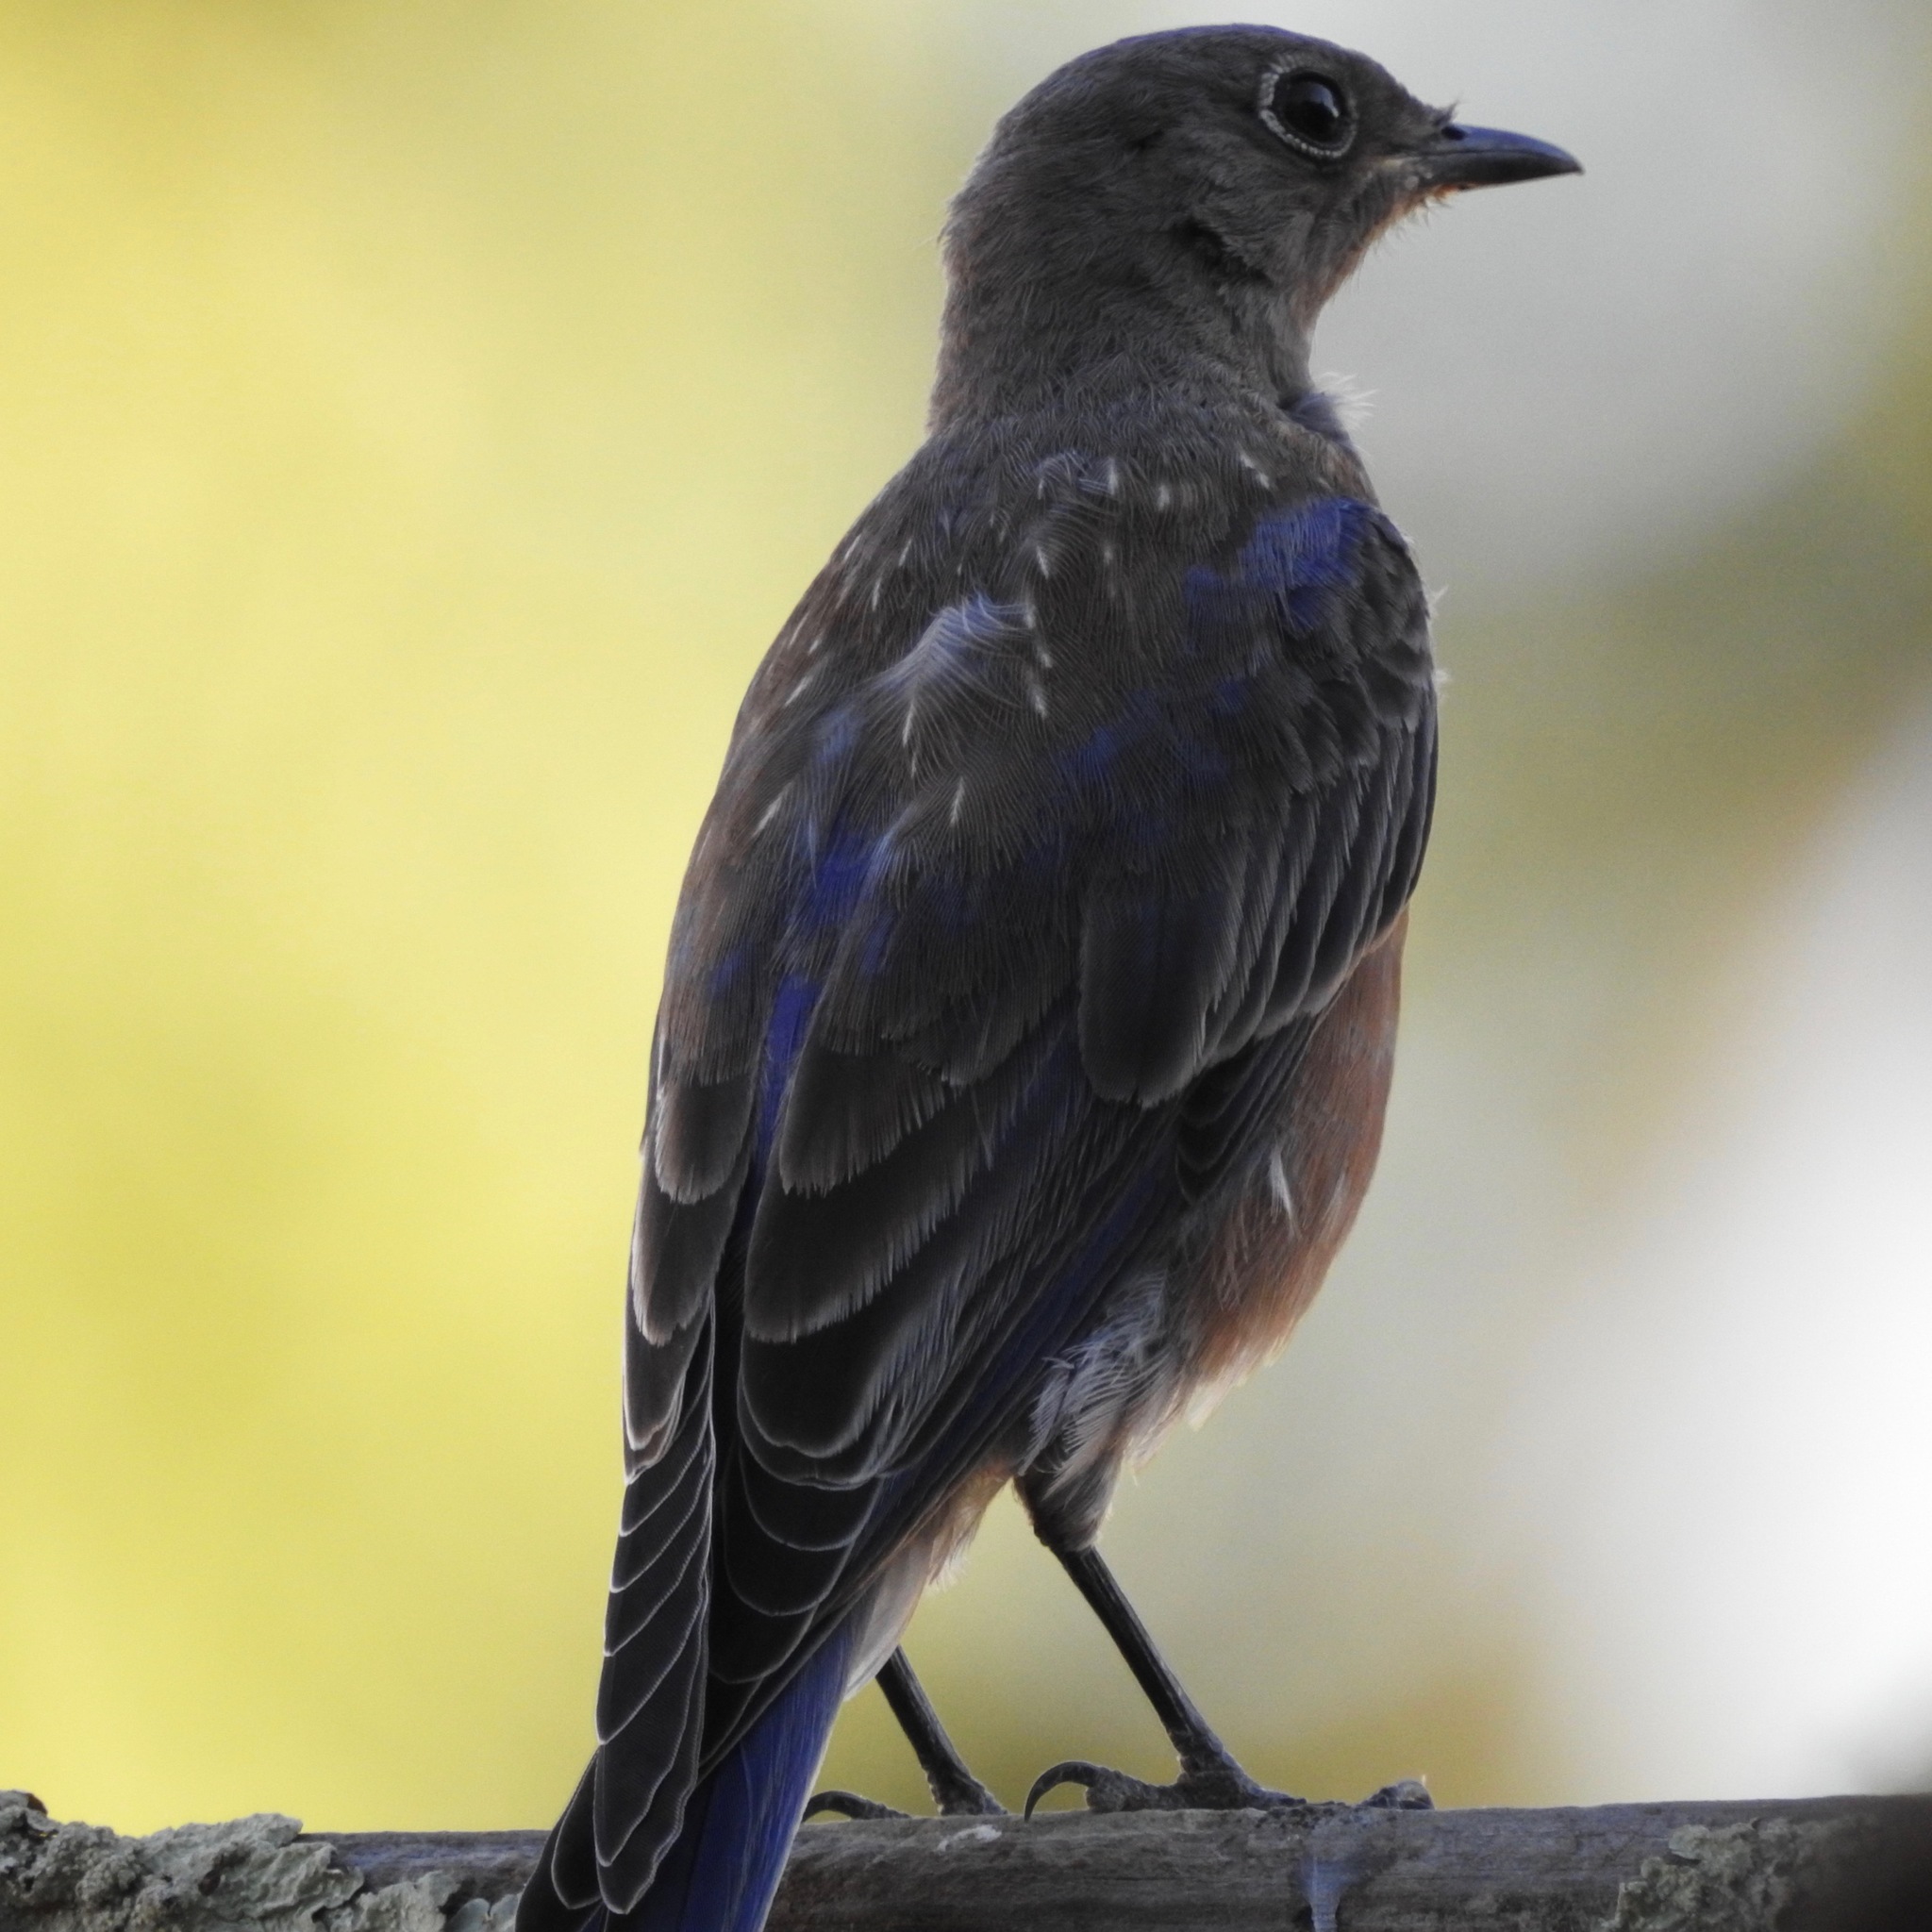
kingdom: Animalia
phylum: Chordata
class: Aves
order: Passeriformes
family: Turdidae
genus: Sialia
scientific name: Sialia mexicana
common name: Western bluebird
